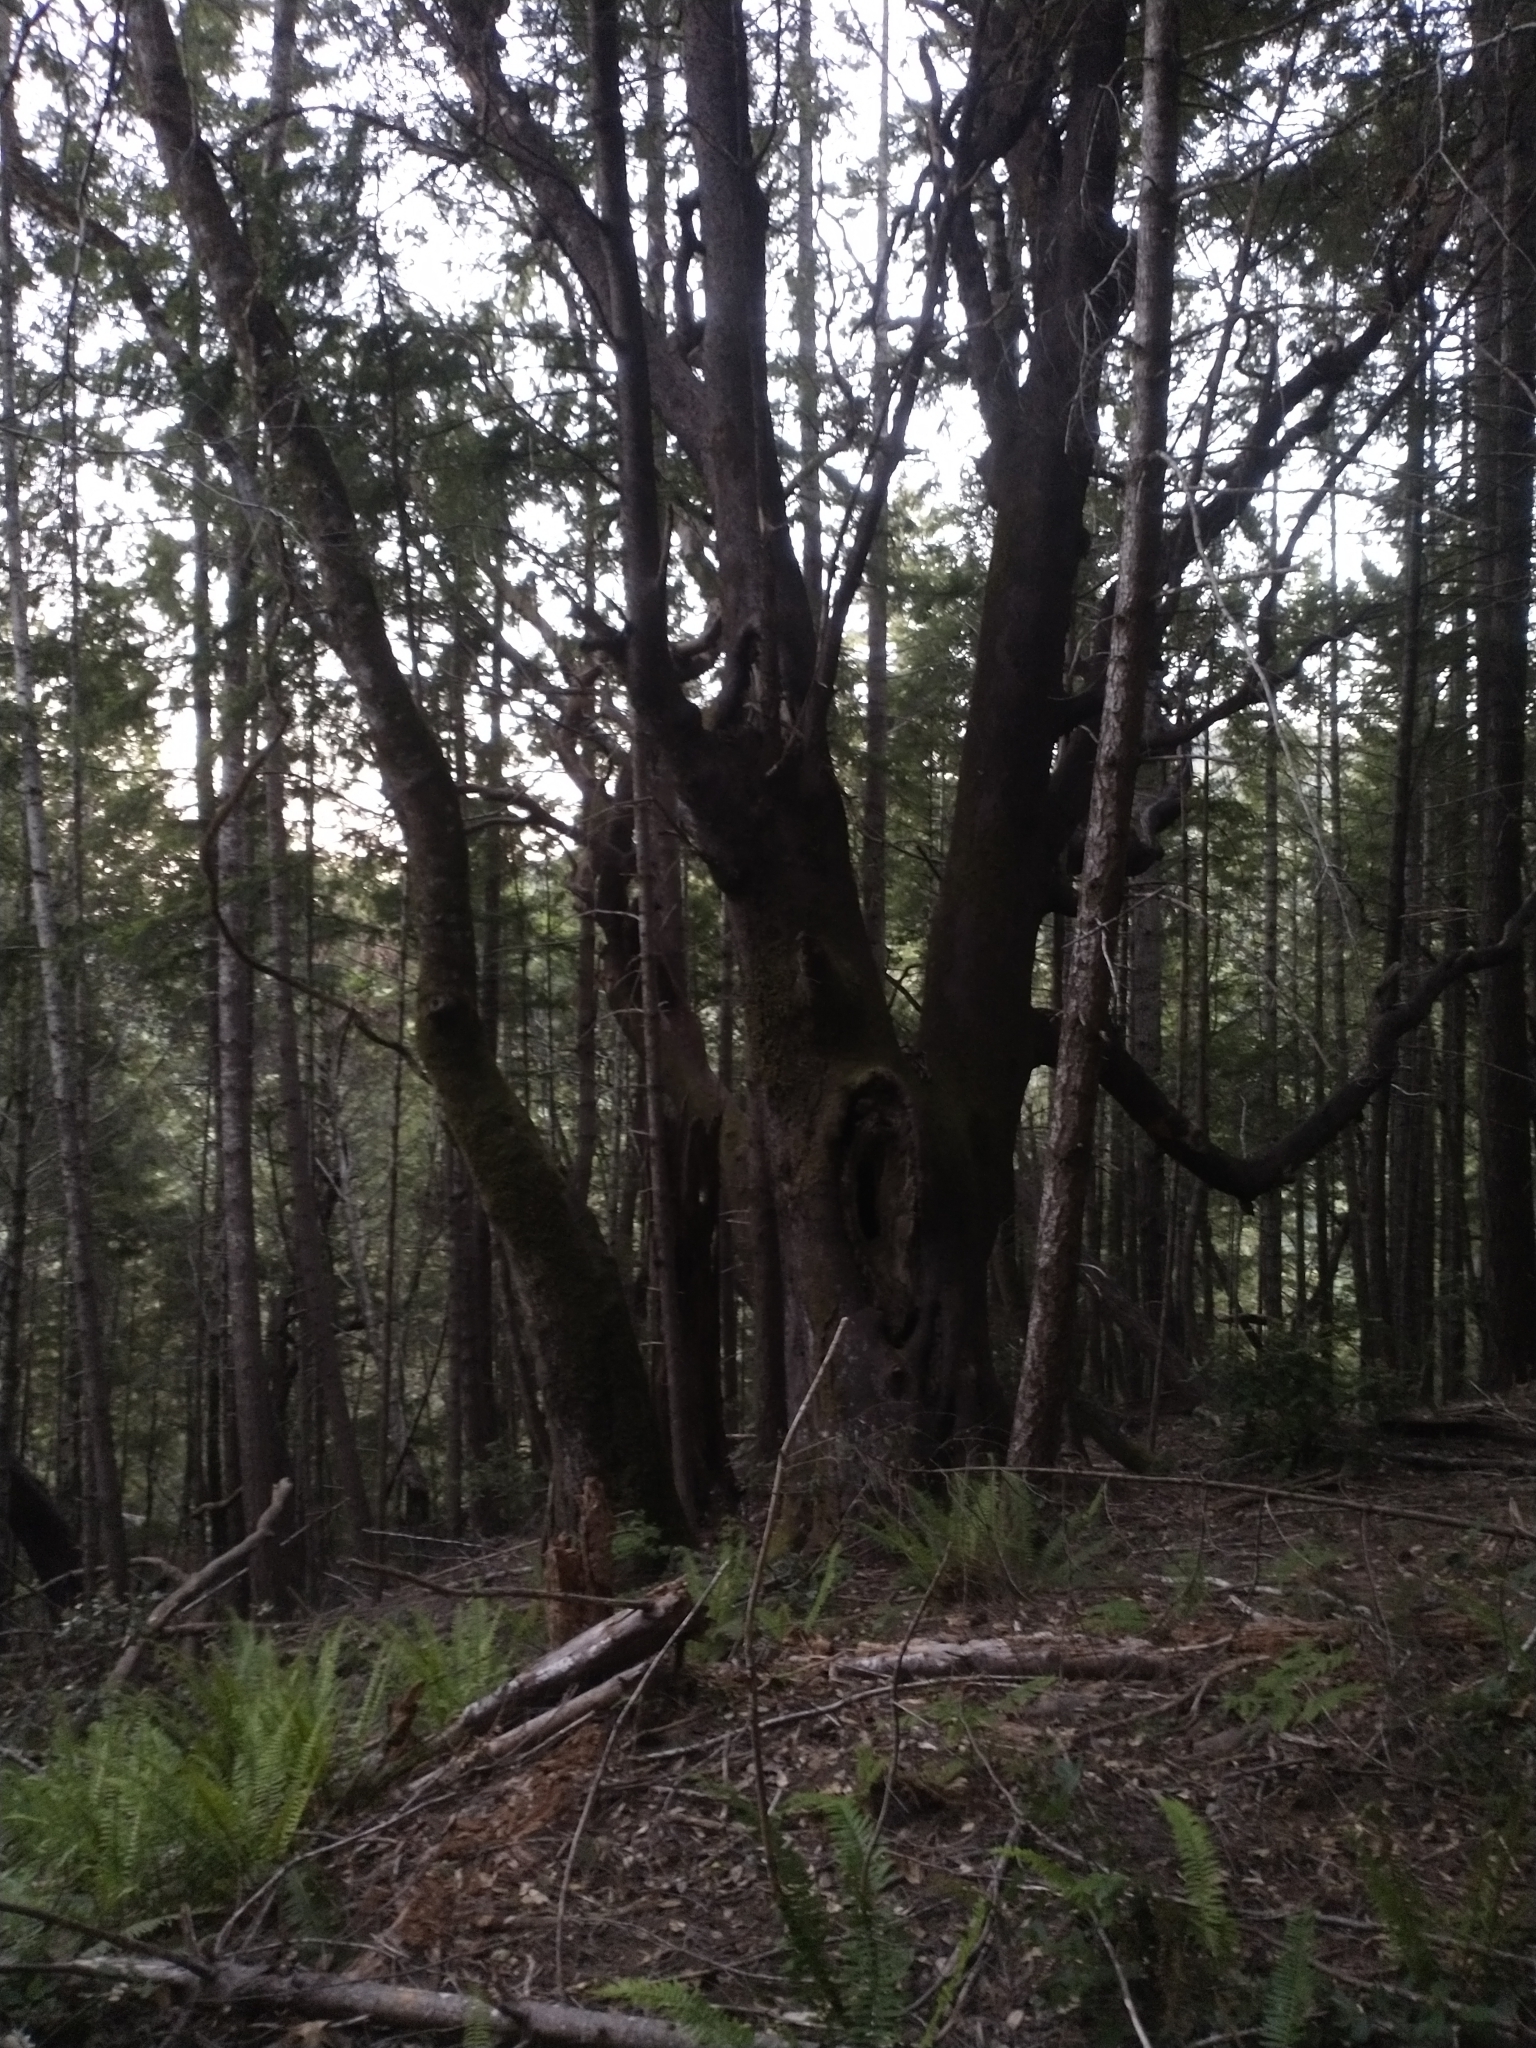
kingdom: Plantae
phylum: Tracheophyta
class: Magnoliopsida
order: Ericales
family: Ericaceae
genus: Arbutus
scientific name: Arbutus menziesii
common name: Pacific madrone
